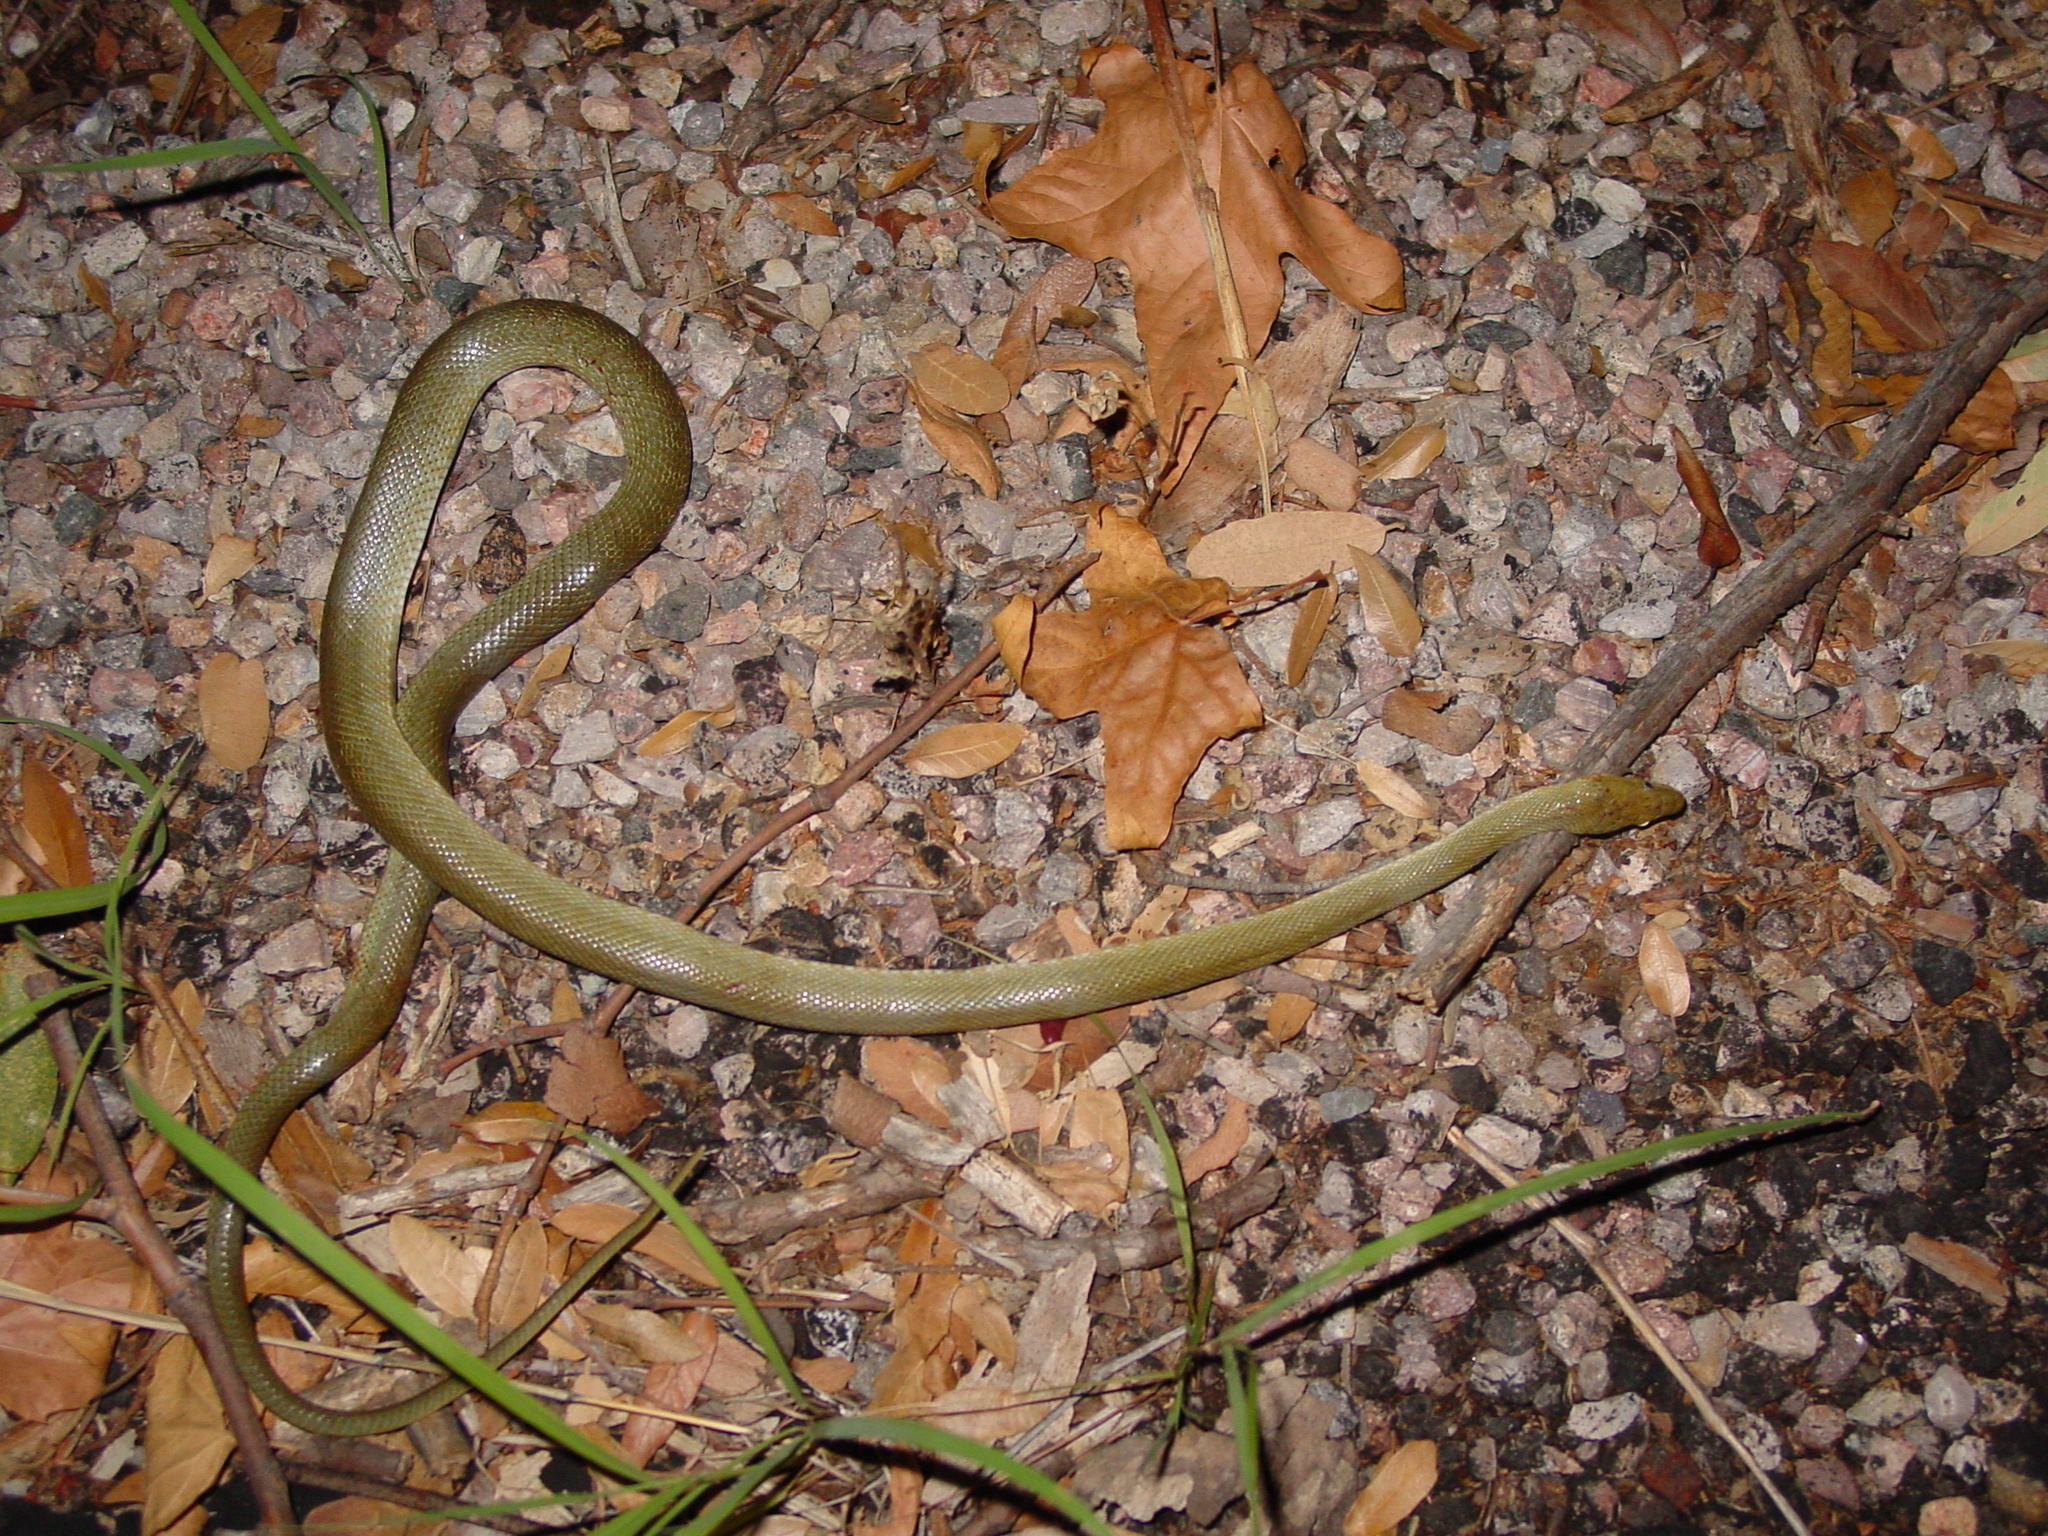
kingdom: Animalia
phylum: Chordata
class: Squamata
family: Colubridae
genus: Senticolis
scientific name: Senticolis triaspis
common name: Green rat snake
